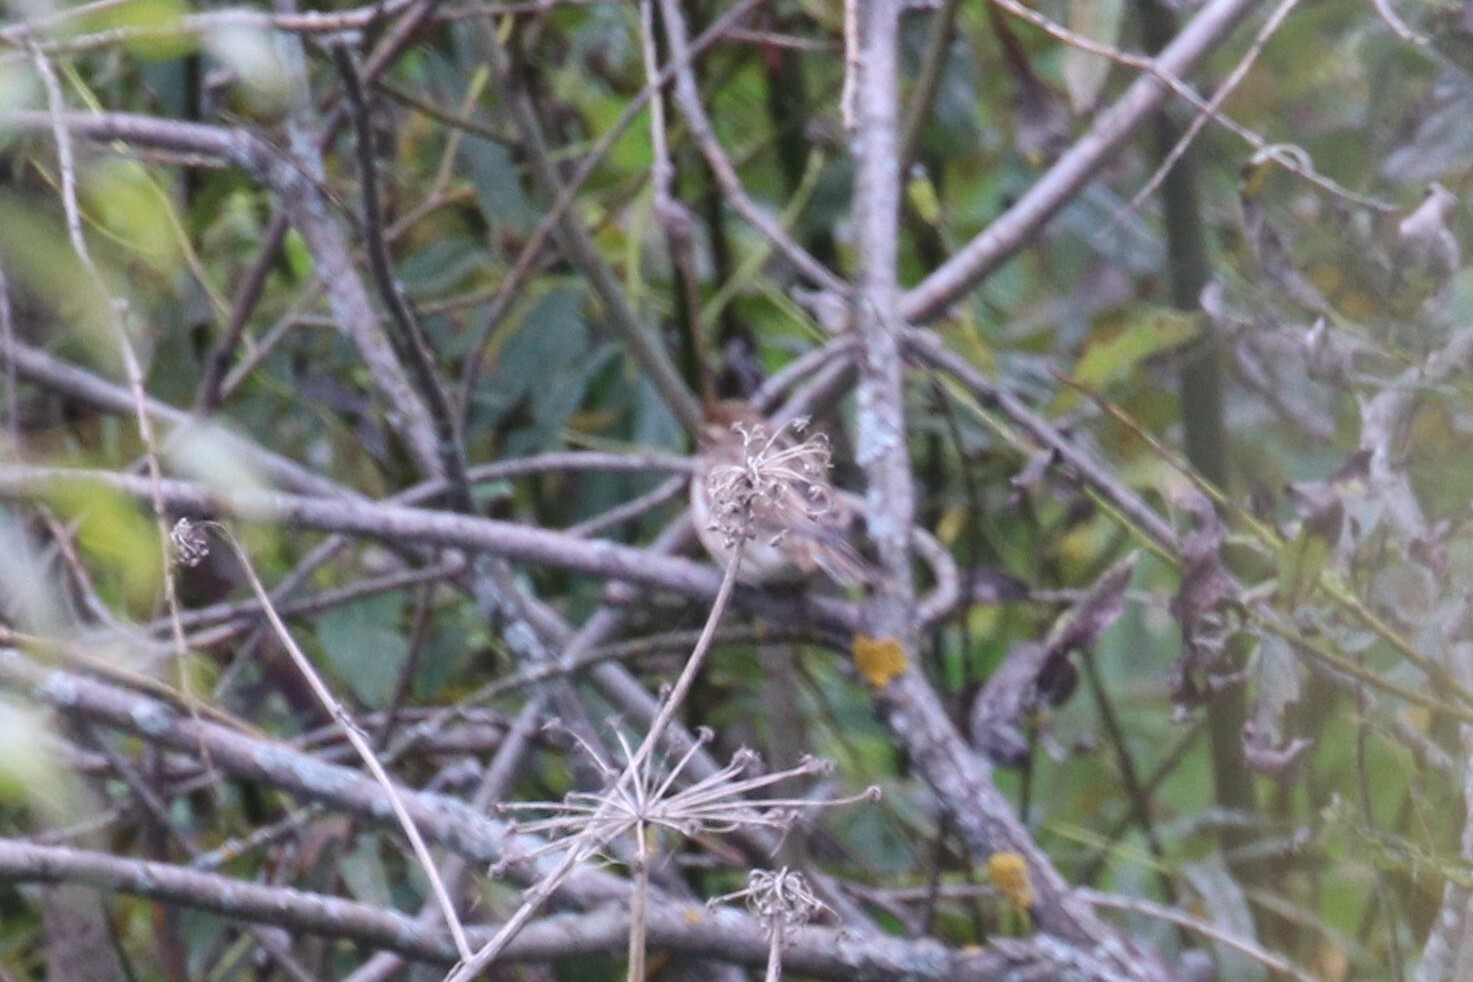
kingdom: Animalia
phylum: Chordata
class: Aves
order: Passeriformes
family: Emberizidae
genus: Emberiza
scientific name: Emberiza schoeniclus
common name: Reed bunting
